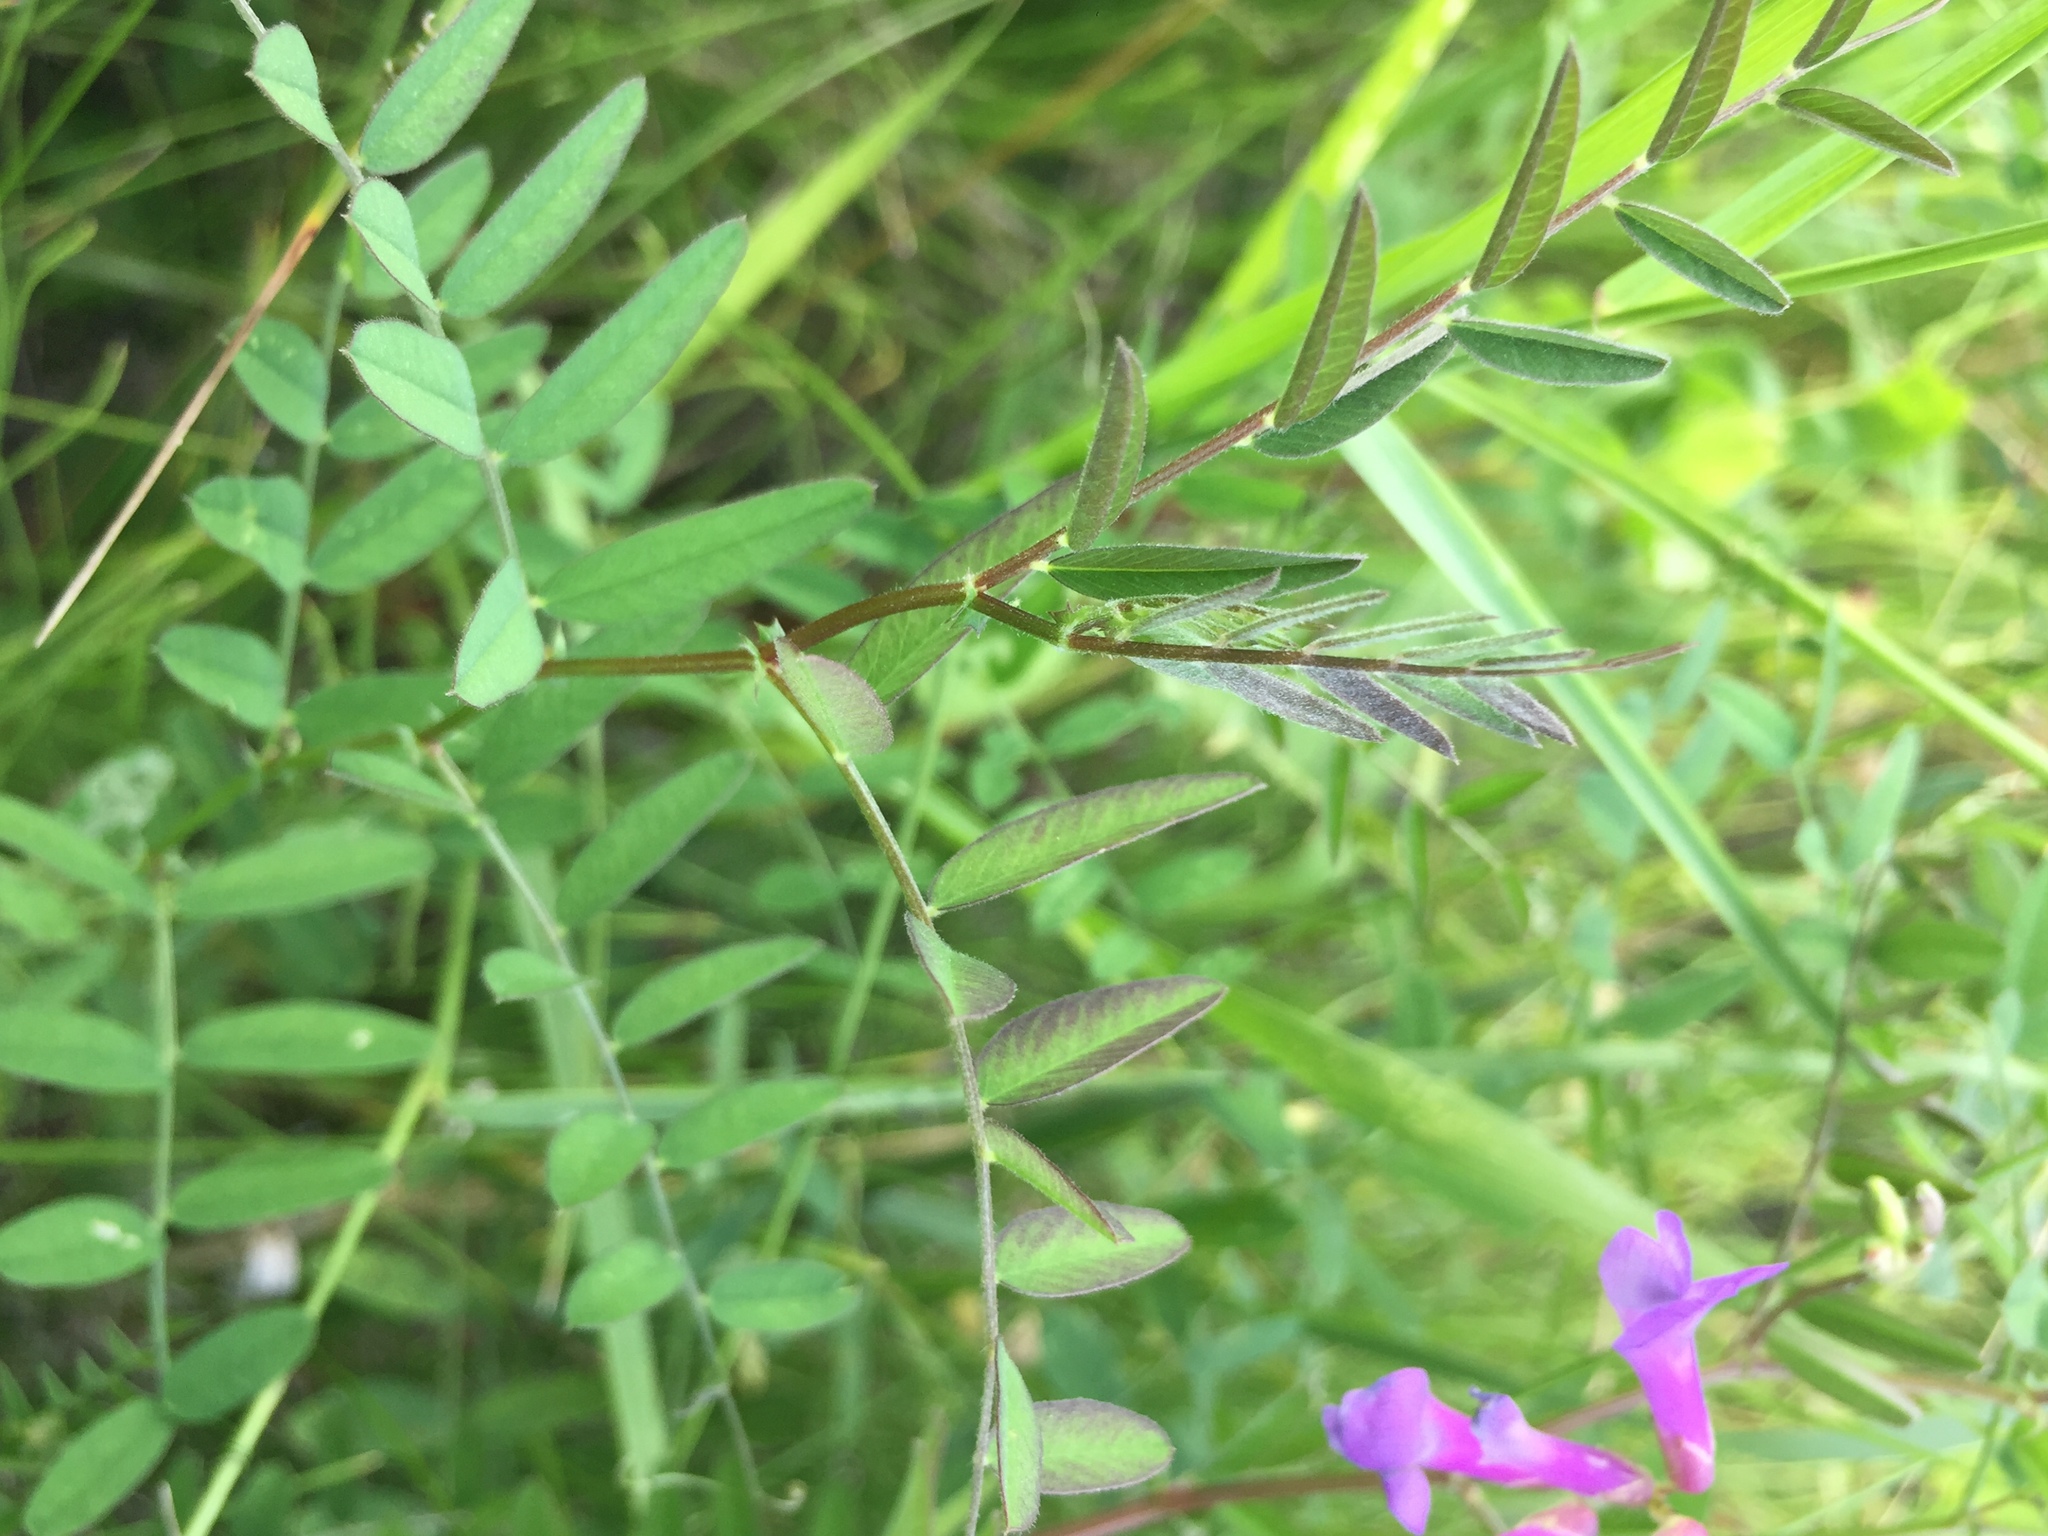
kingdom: Plantae
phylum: Tracheophyta
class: Magnoliopsida
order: Fabales
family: Fabaceae
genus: Vicia
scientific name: Vicia americana
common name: American vetch
